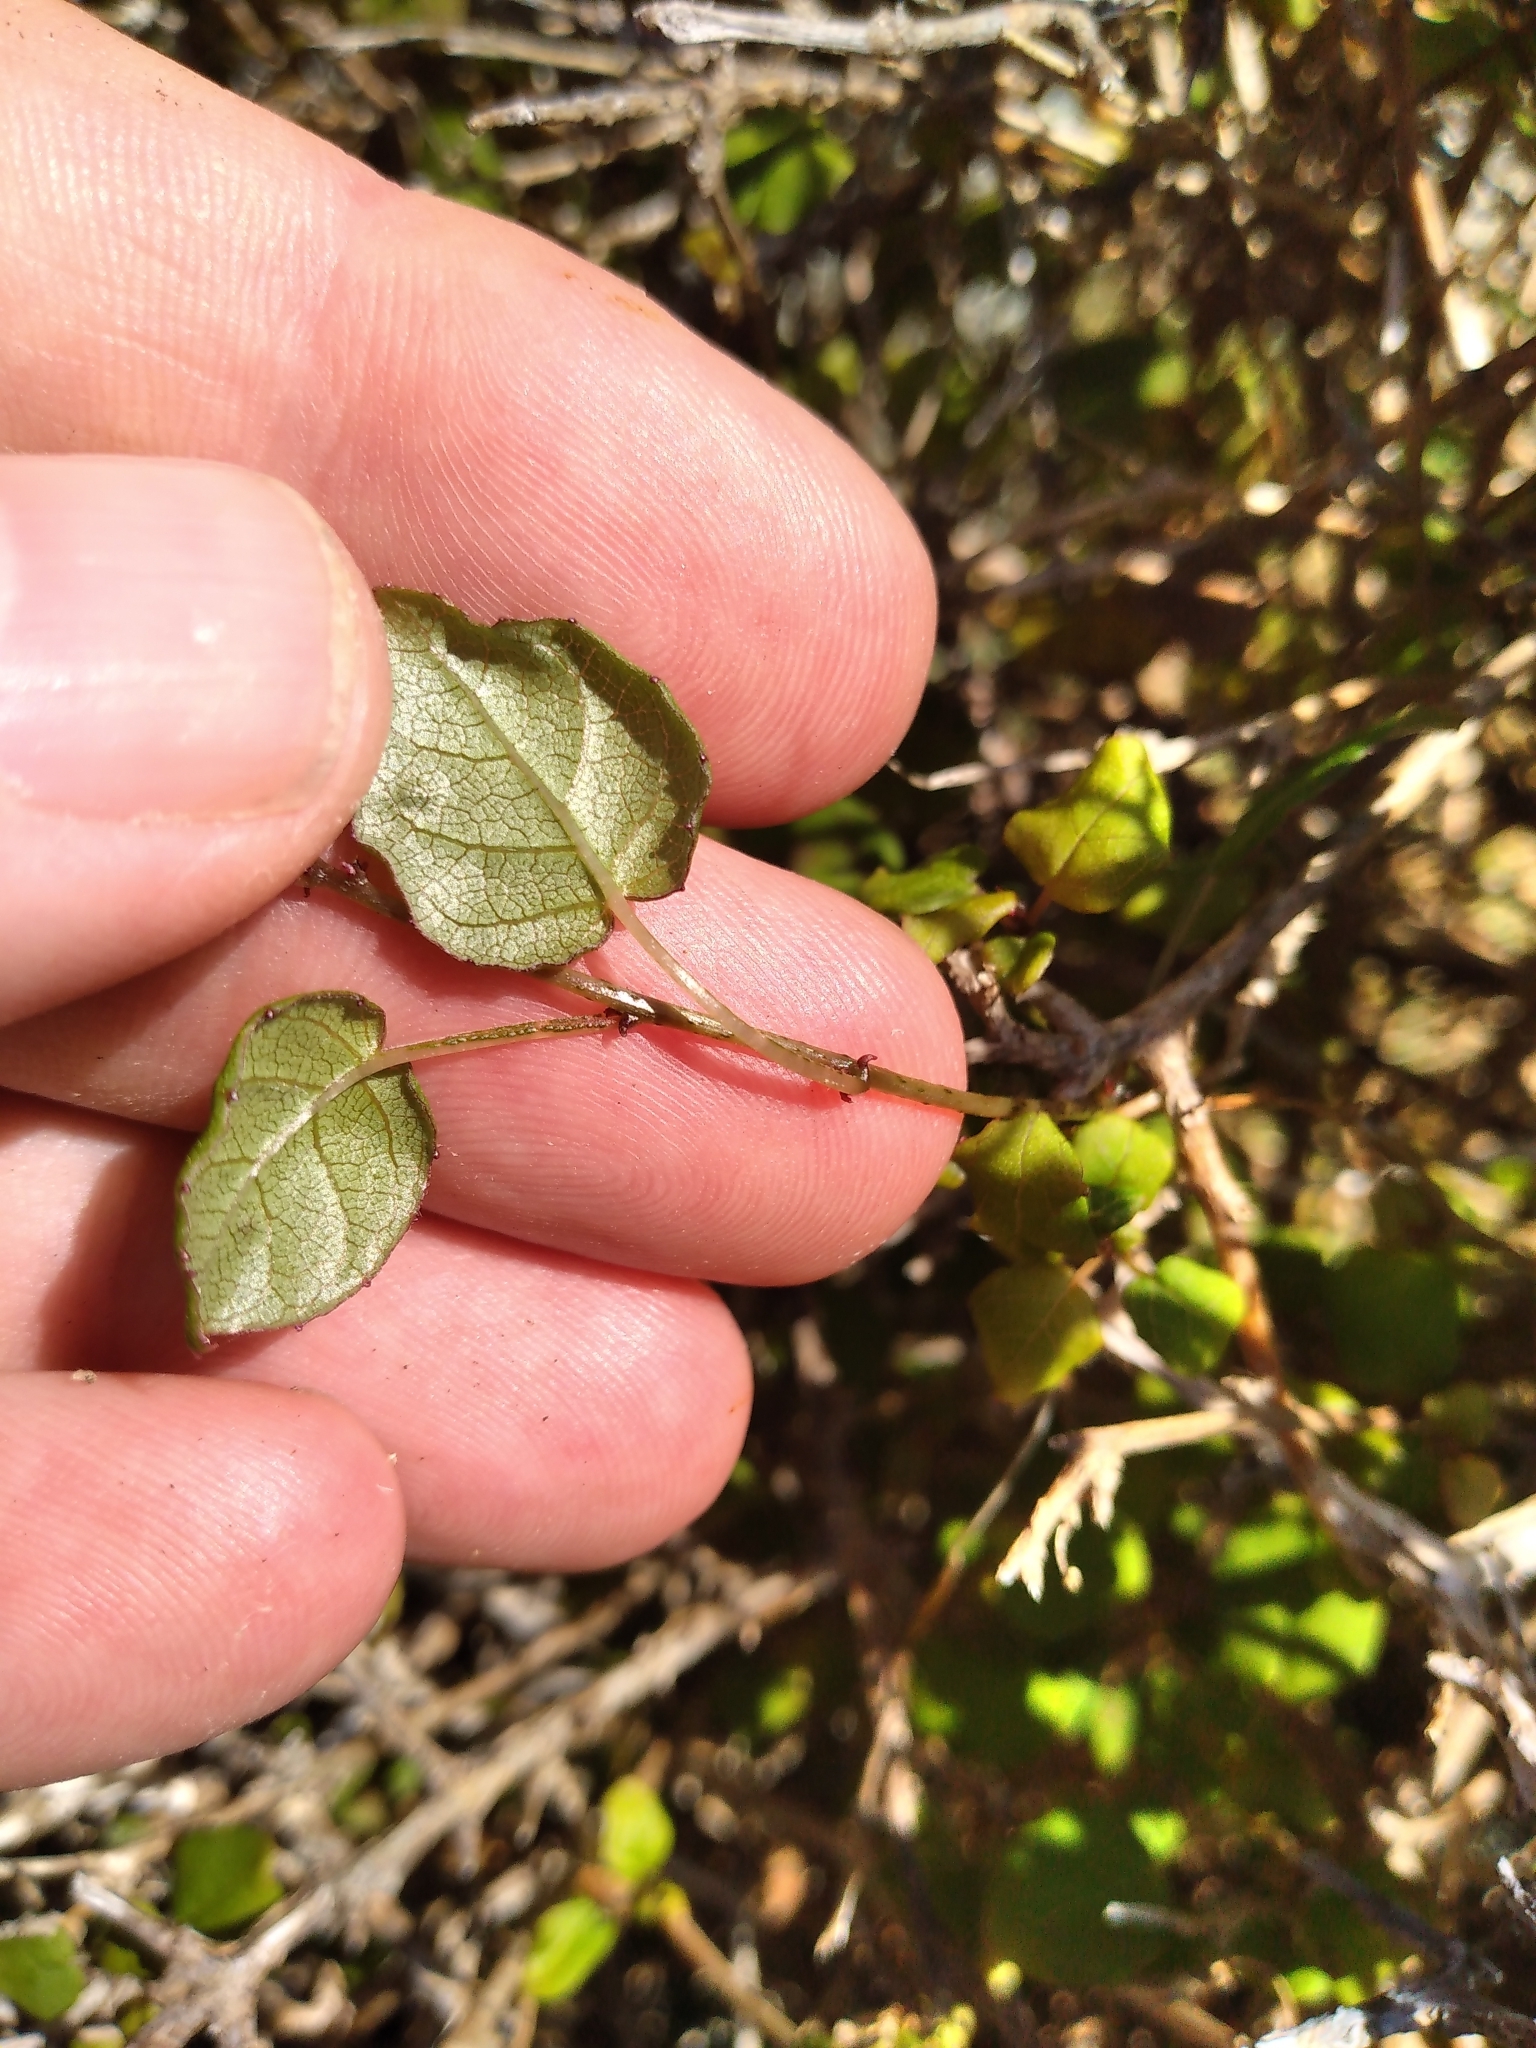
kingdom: Plantae
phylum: Tracheophyta
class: Magnoliopsida
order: Myrtales
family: Onagraceae
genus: Fuchsia
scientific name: Fuchsia perscandens
